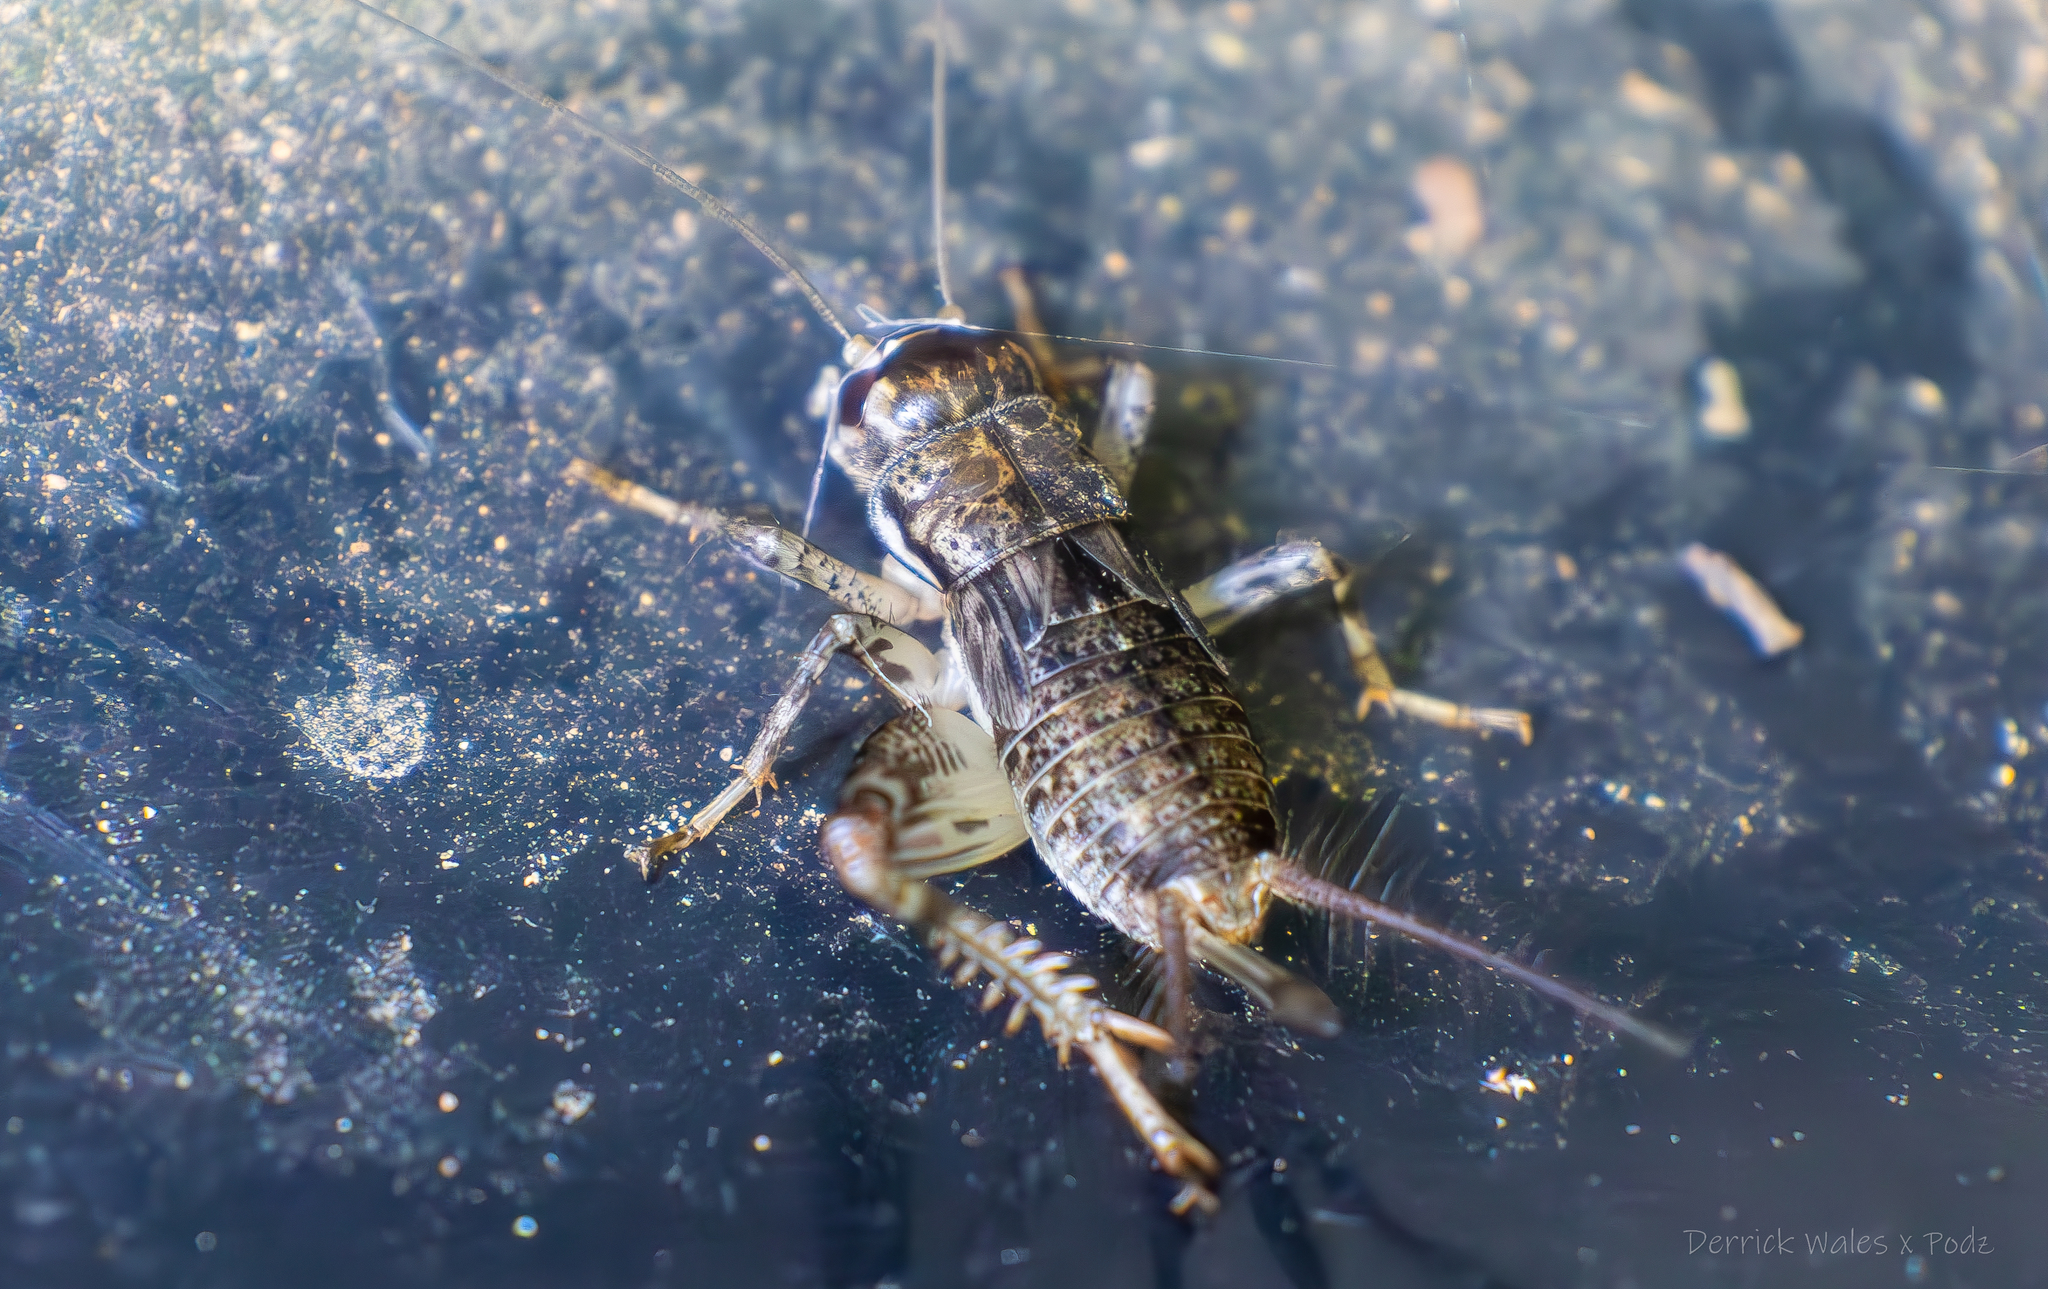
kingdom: Animalia
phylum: Arthropoda
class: Insecta
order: Orthoptera
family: Gryllidae
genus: Velarifictorus
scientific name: Velarifictorus micado
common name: Japanese burrowing cricket
